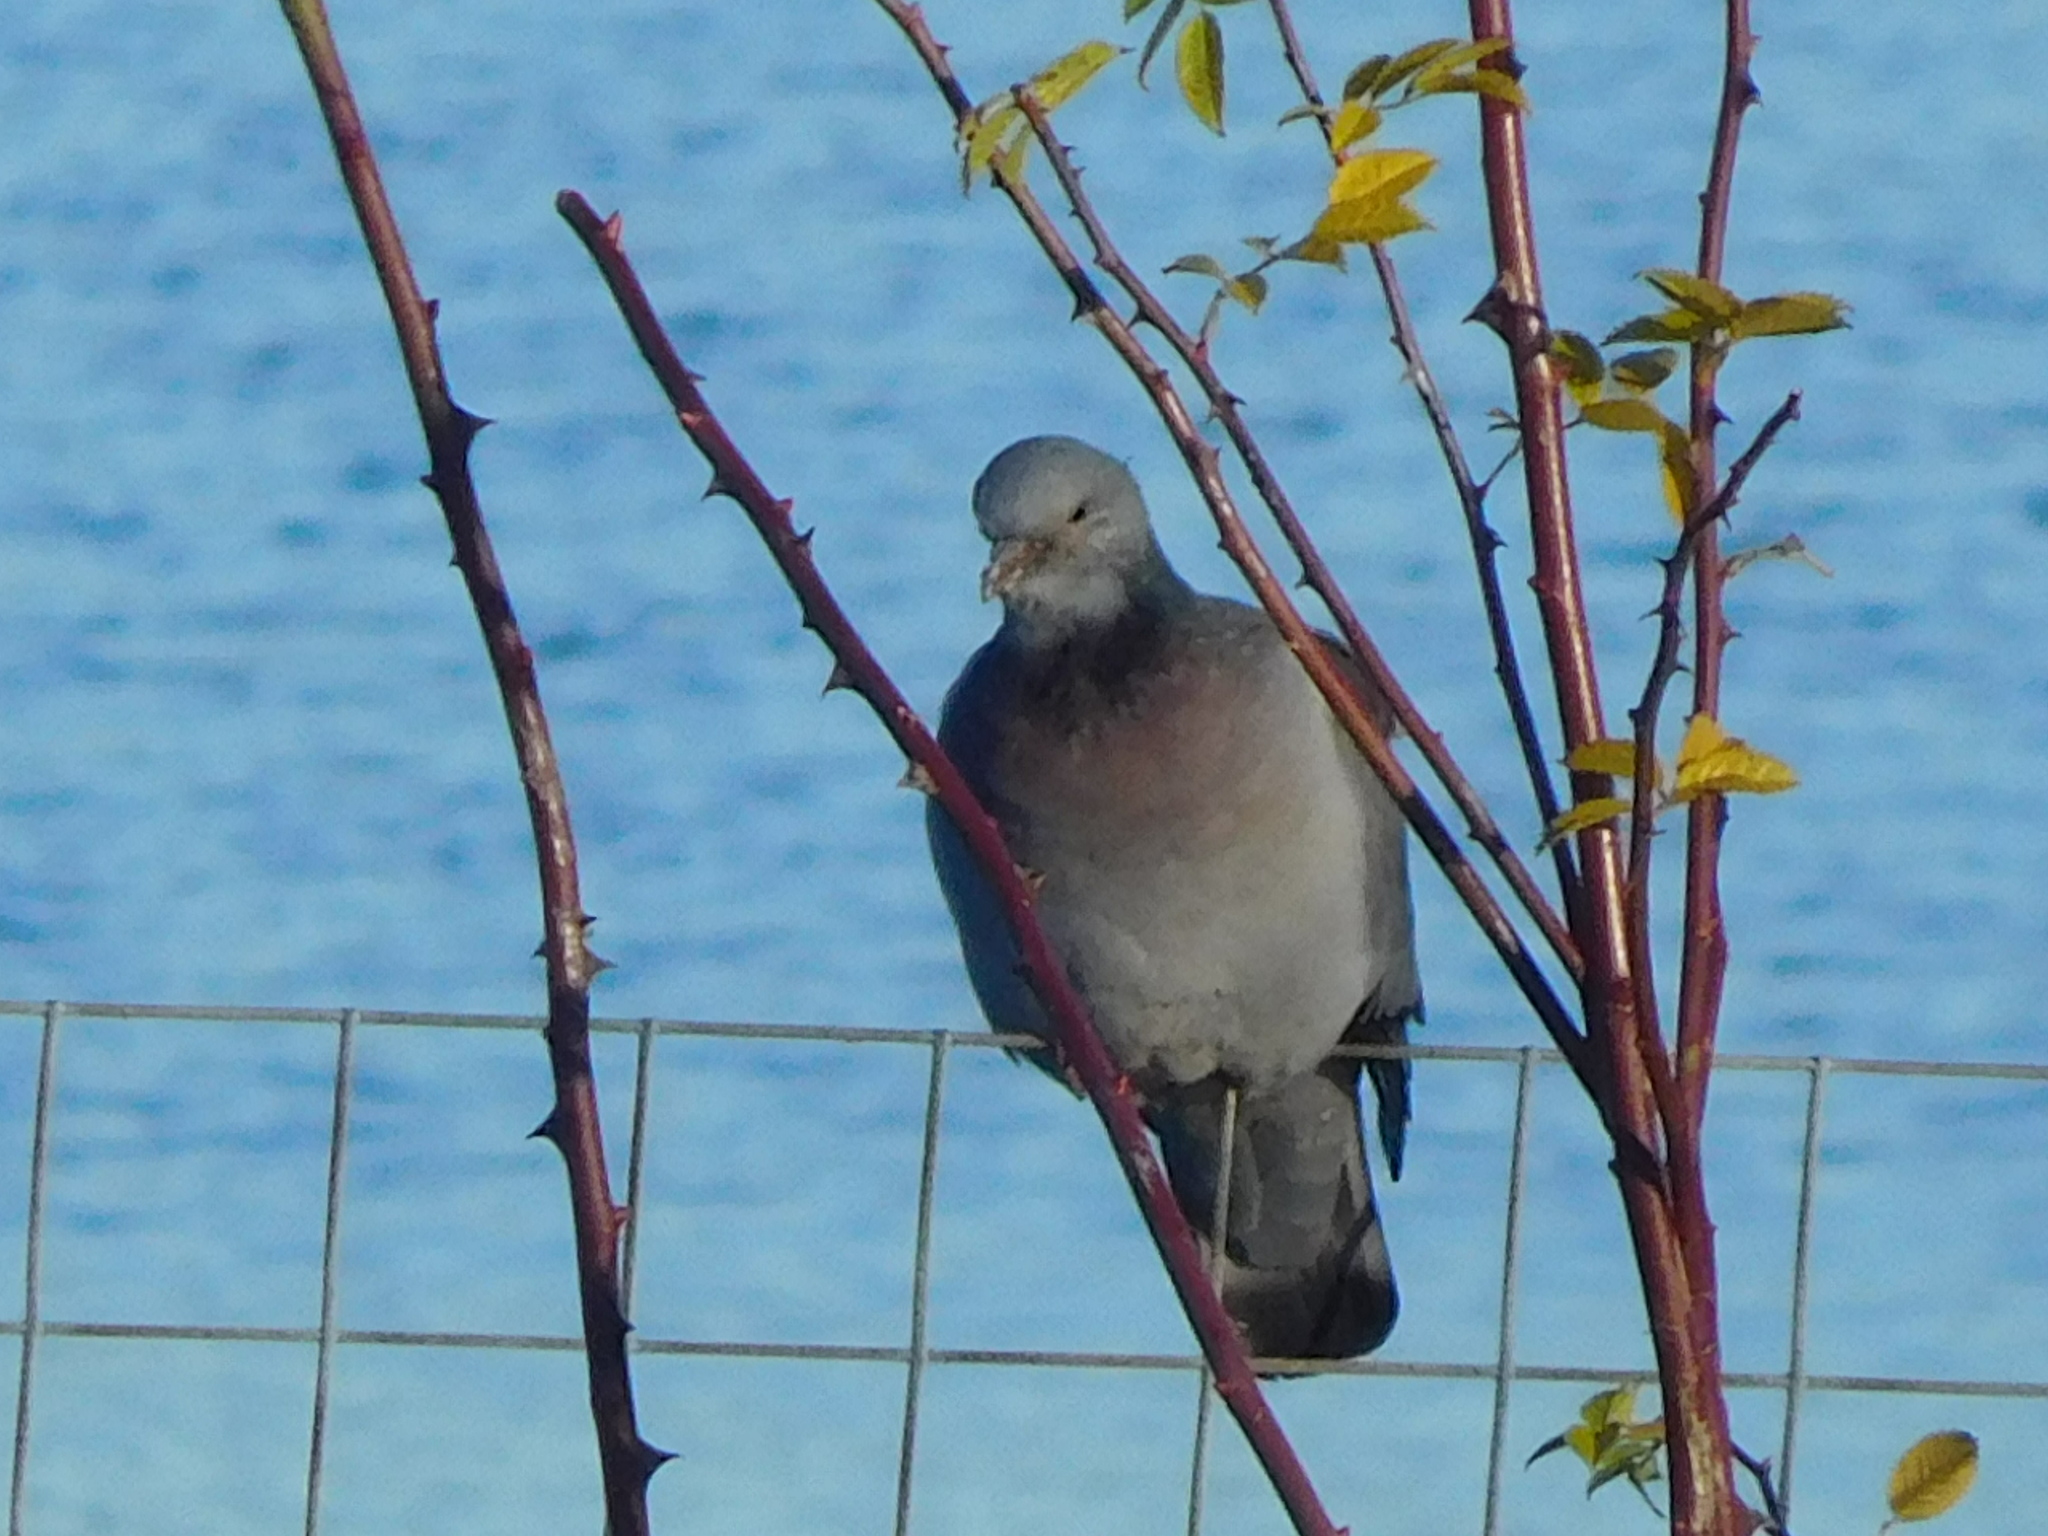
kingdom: Animalia
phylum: Chordata
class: Aves
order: Columbiformes
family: Columbidae
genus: Columba
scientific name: Columba palumbus
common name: Common wood pigeon
